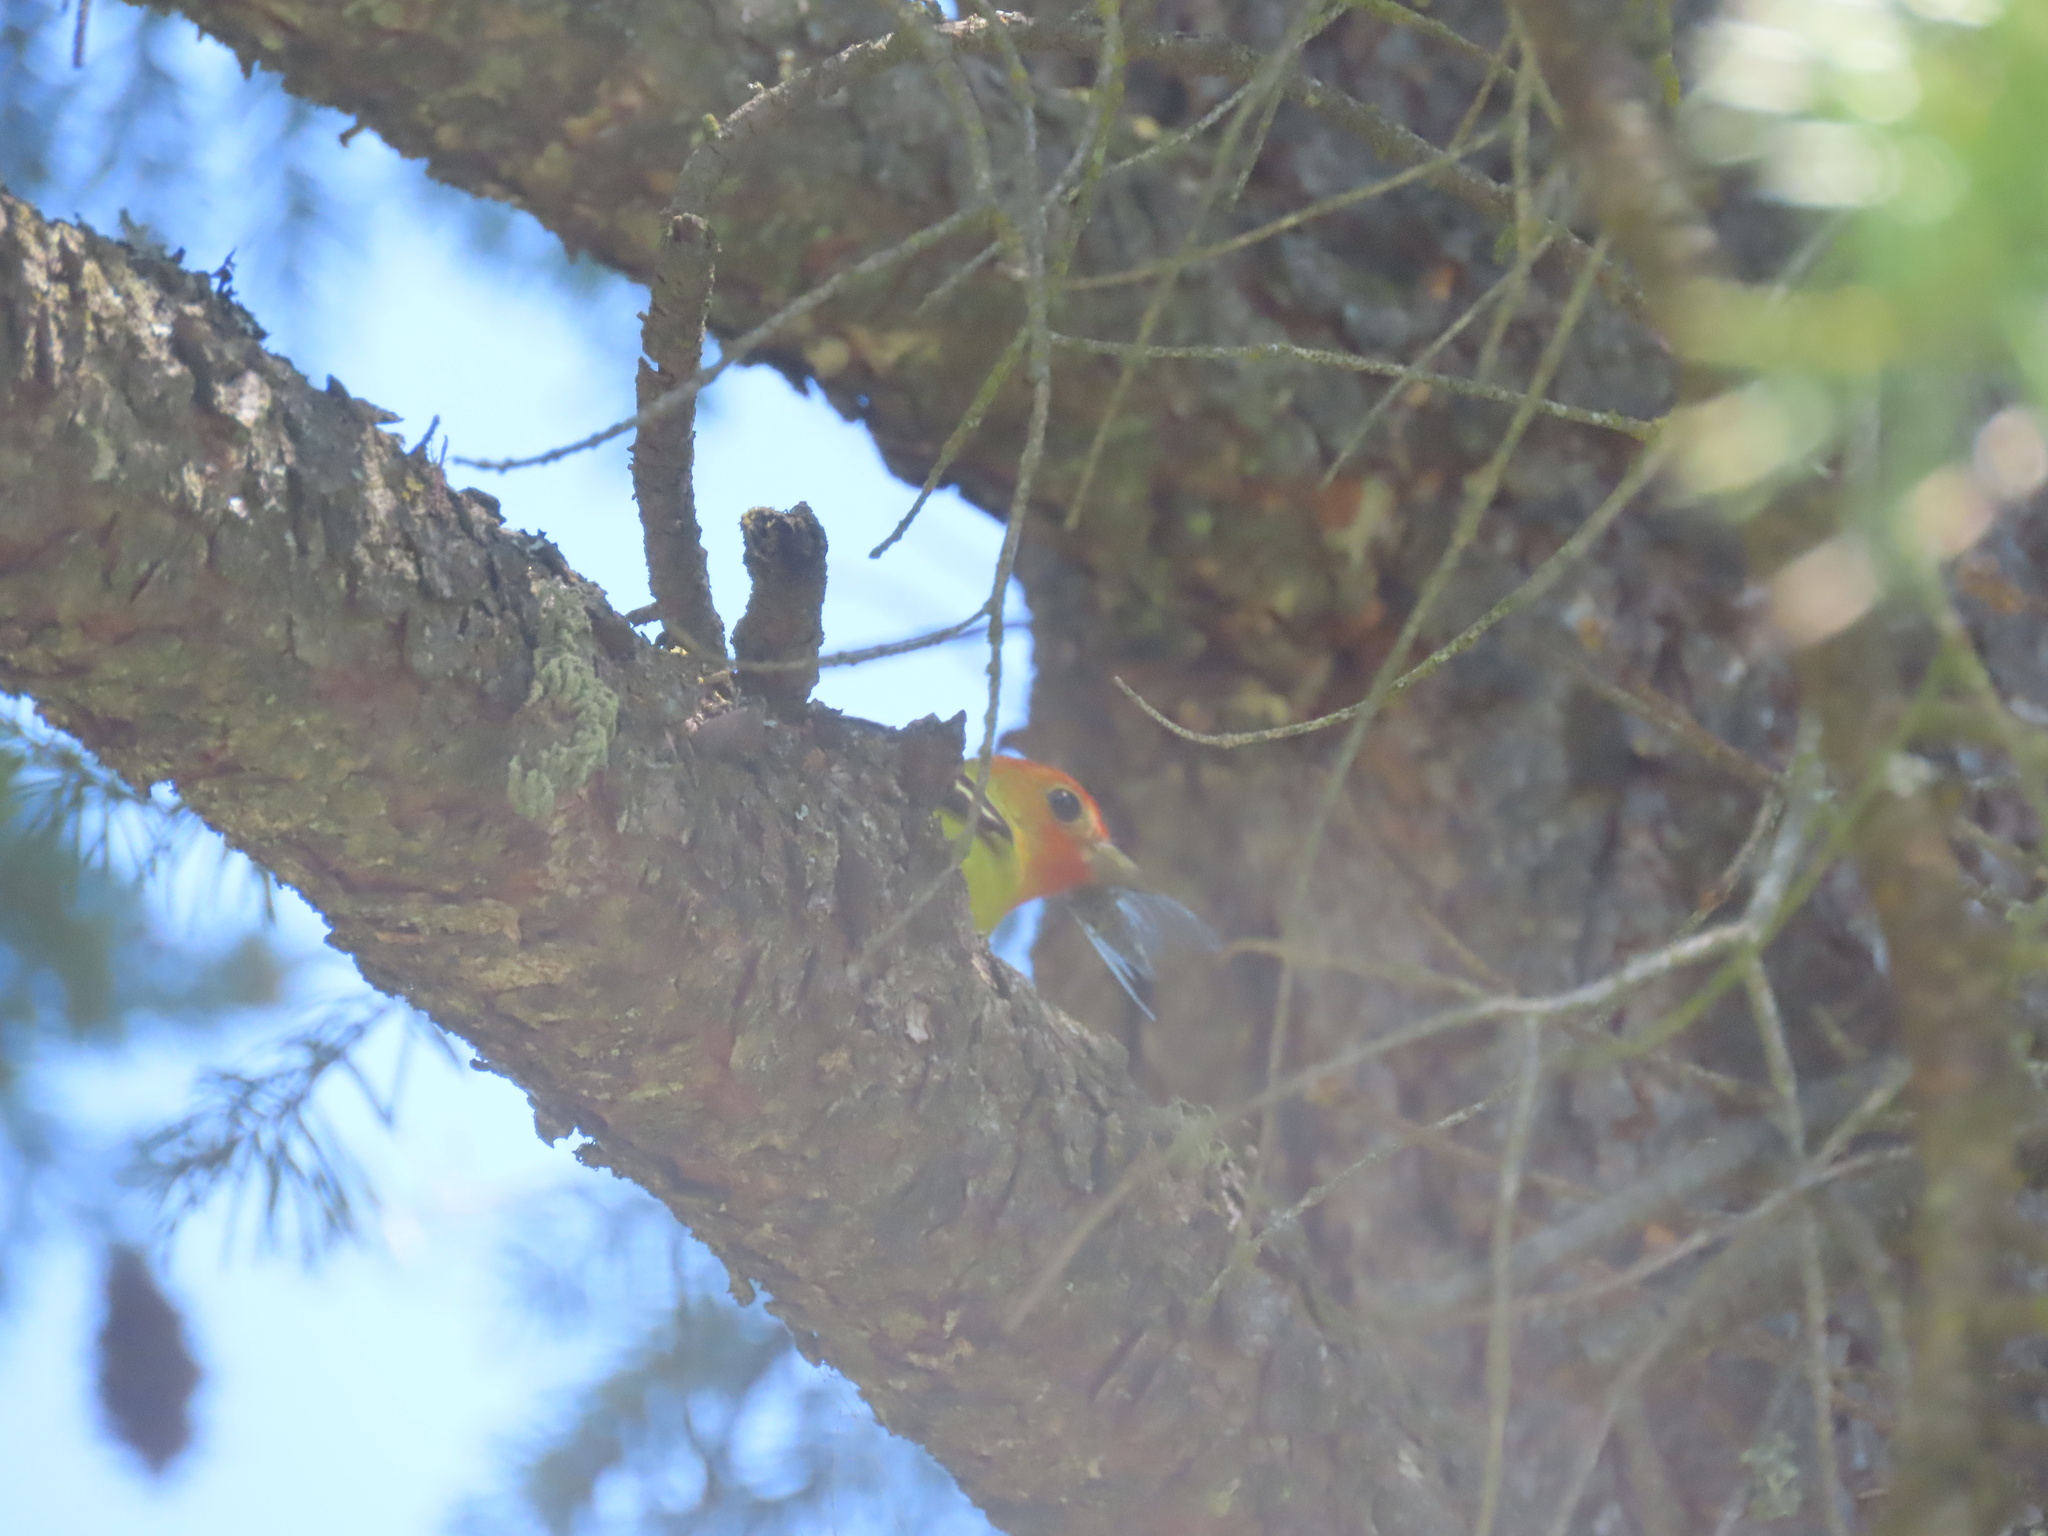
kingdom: Animalia
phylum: Chordata
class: Aves
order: Passeriformes
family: Cardinalidae
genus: Piranga
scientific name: Piranga ludoviciana
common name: Western tanager
